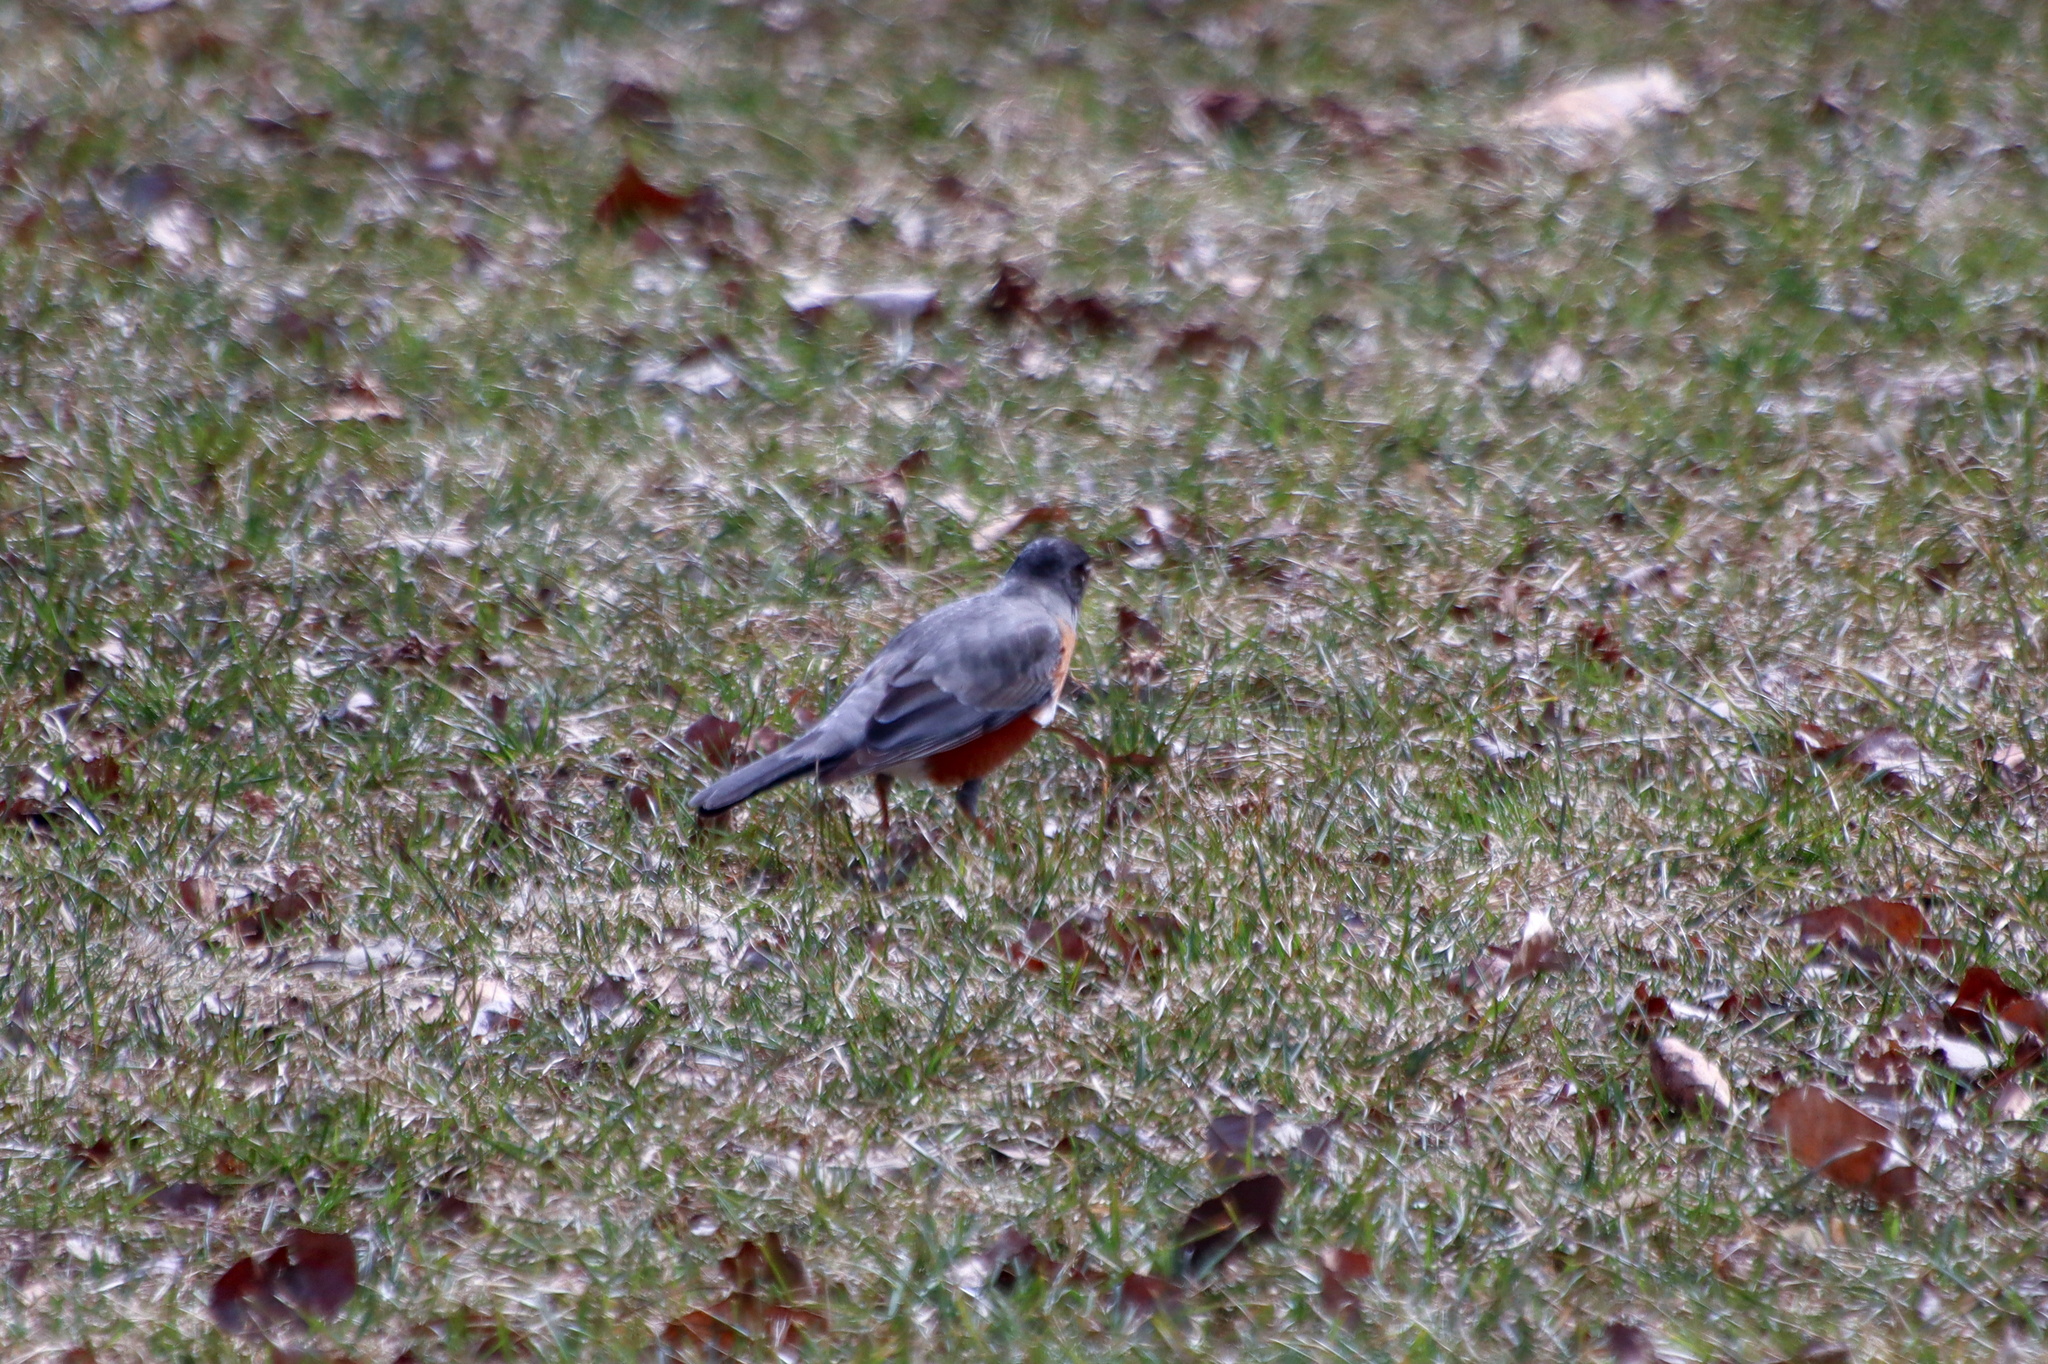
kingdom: Animalia
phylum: Chordata
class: Aves
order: Passeriformes
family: Turdidae
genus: Turdus
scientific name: Turdus migratorius
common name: American robin
